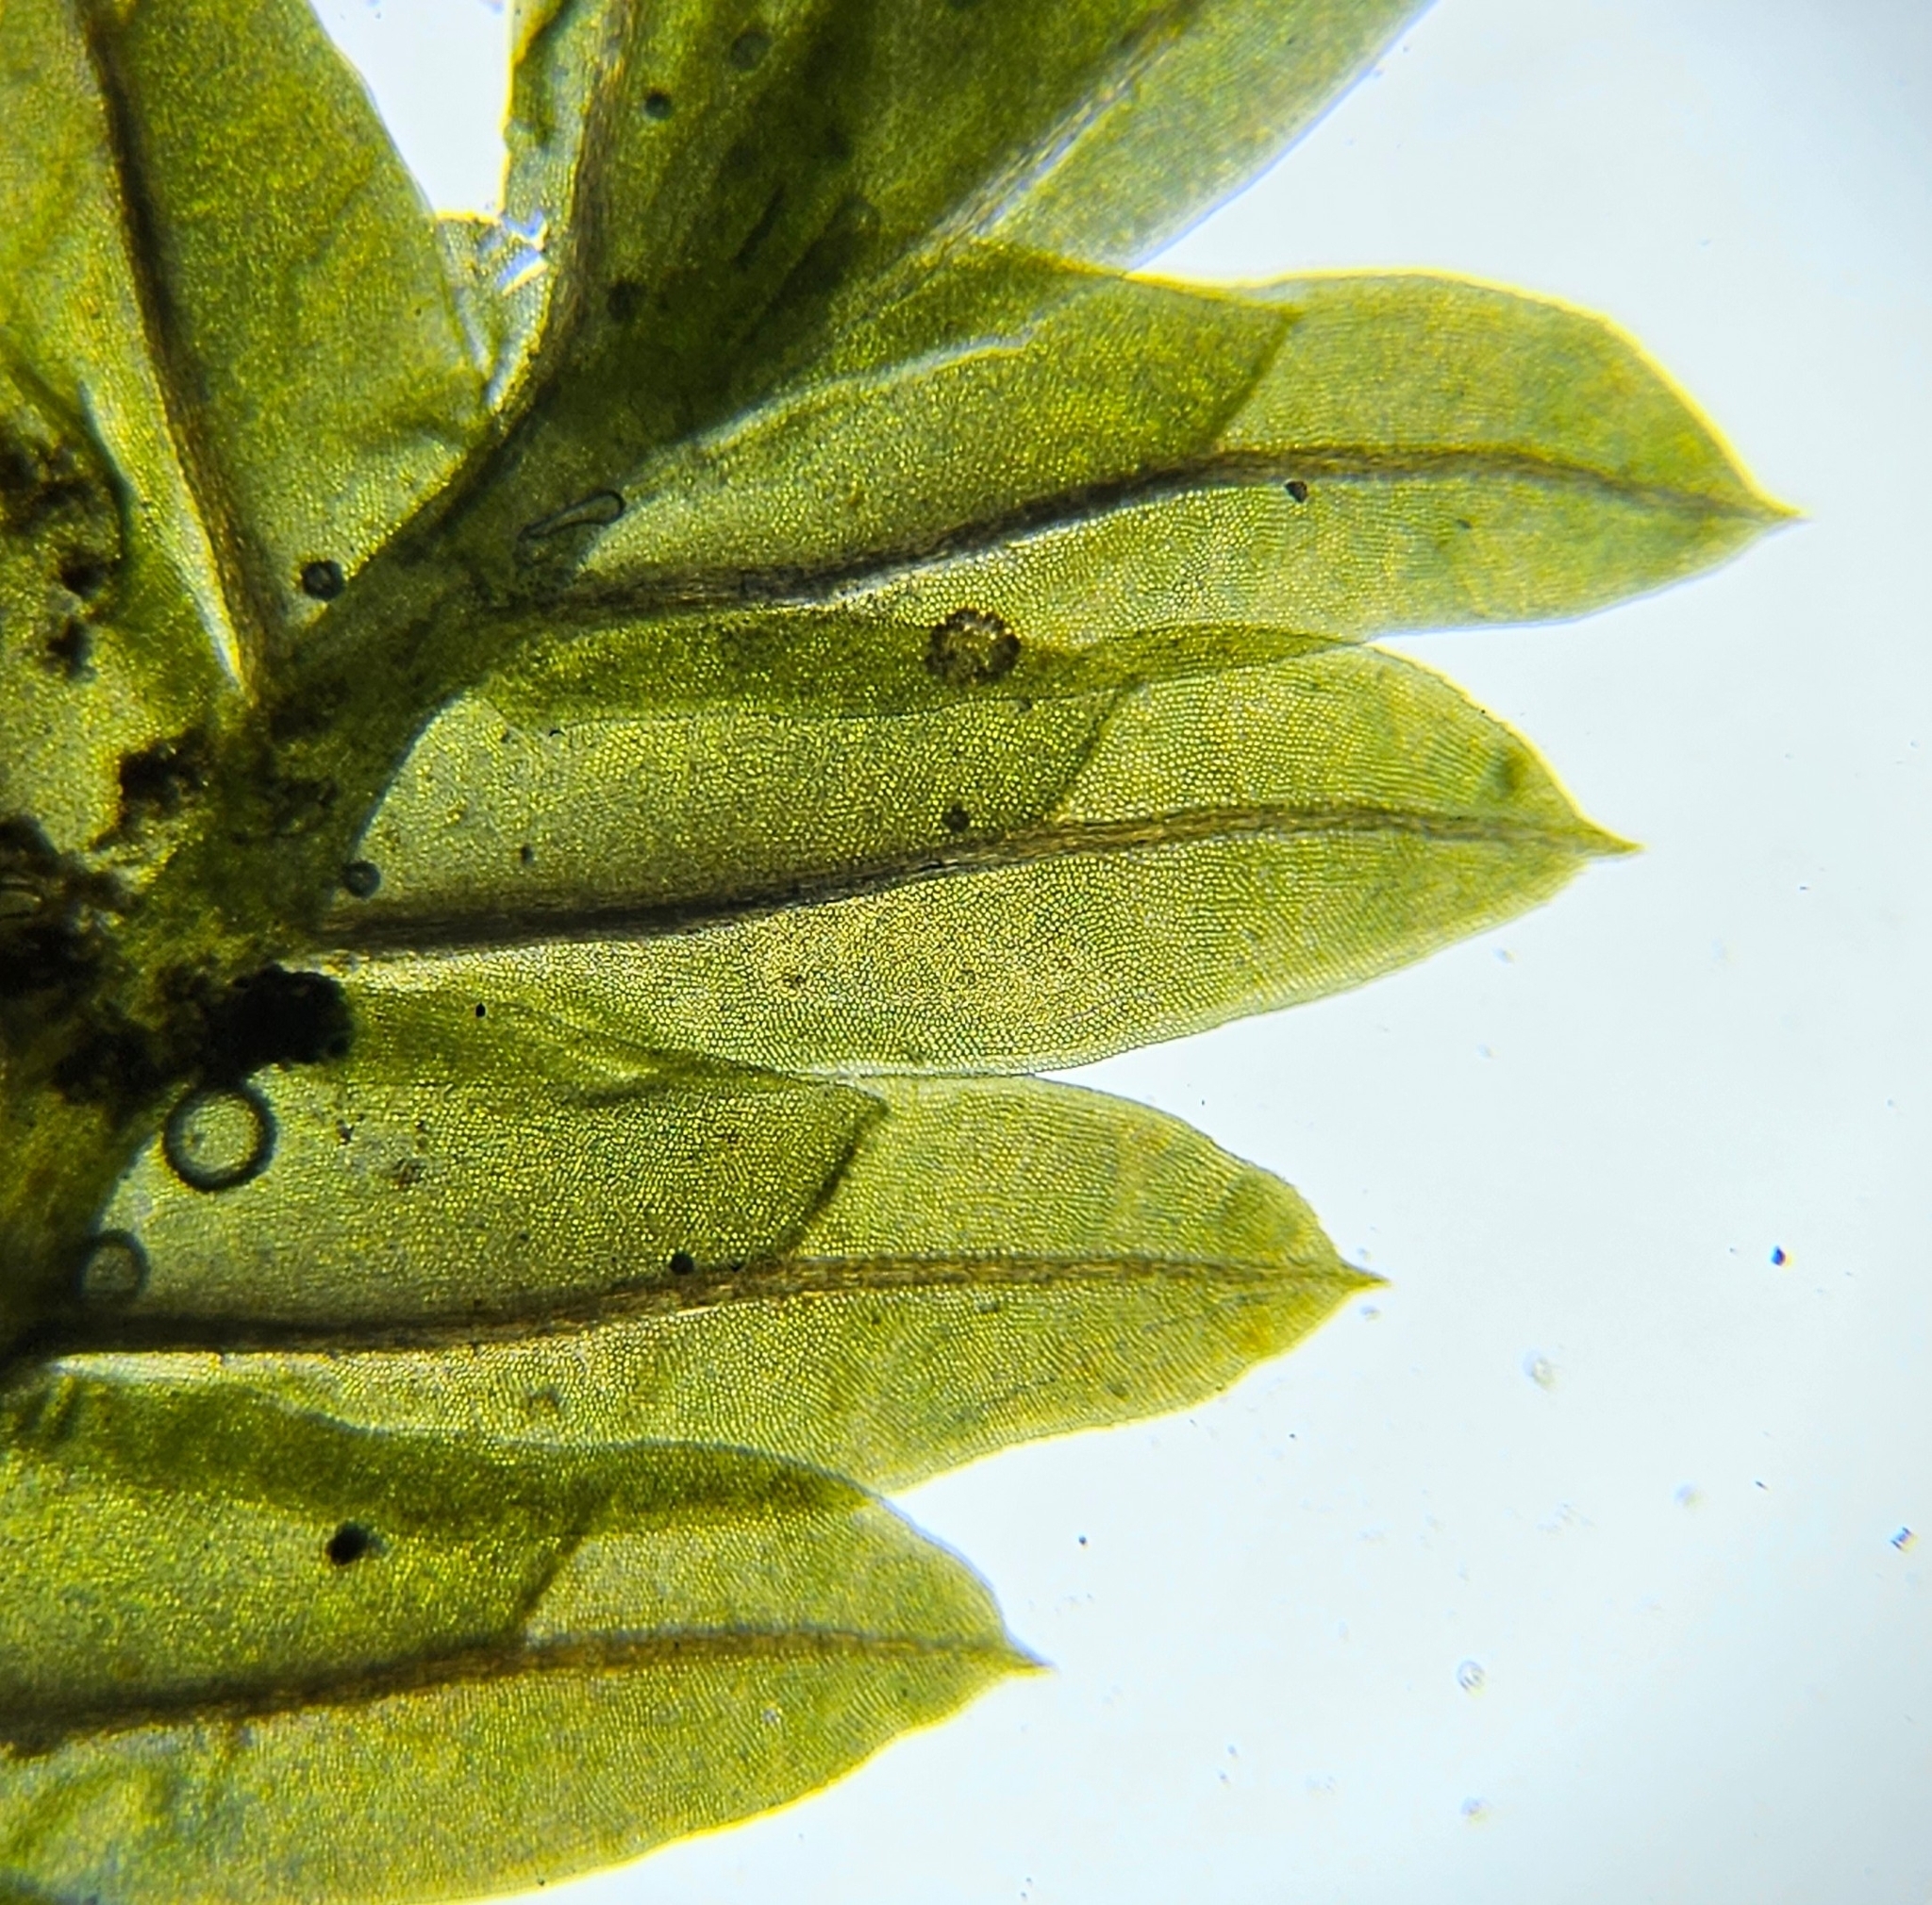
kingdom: Plantae
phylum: Bryophyta
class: Bryopsida
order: Dicranales
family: Fissidentaceae
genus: Fissidens
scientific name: Fissidens taxifolius
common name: Yew-leaved pocket moss
